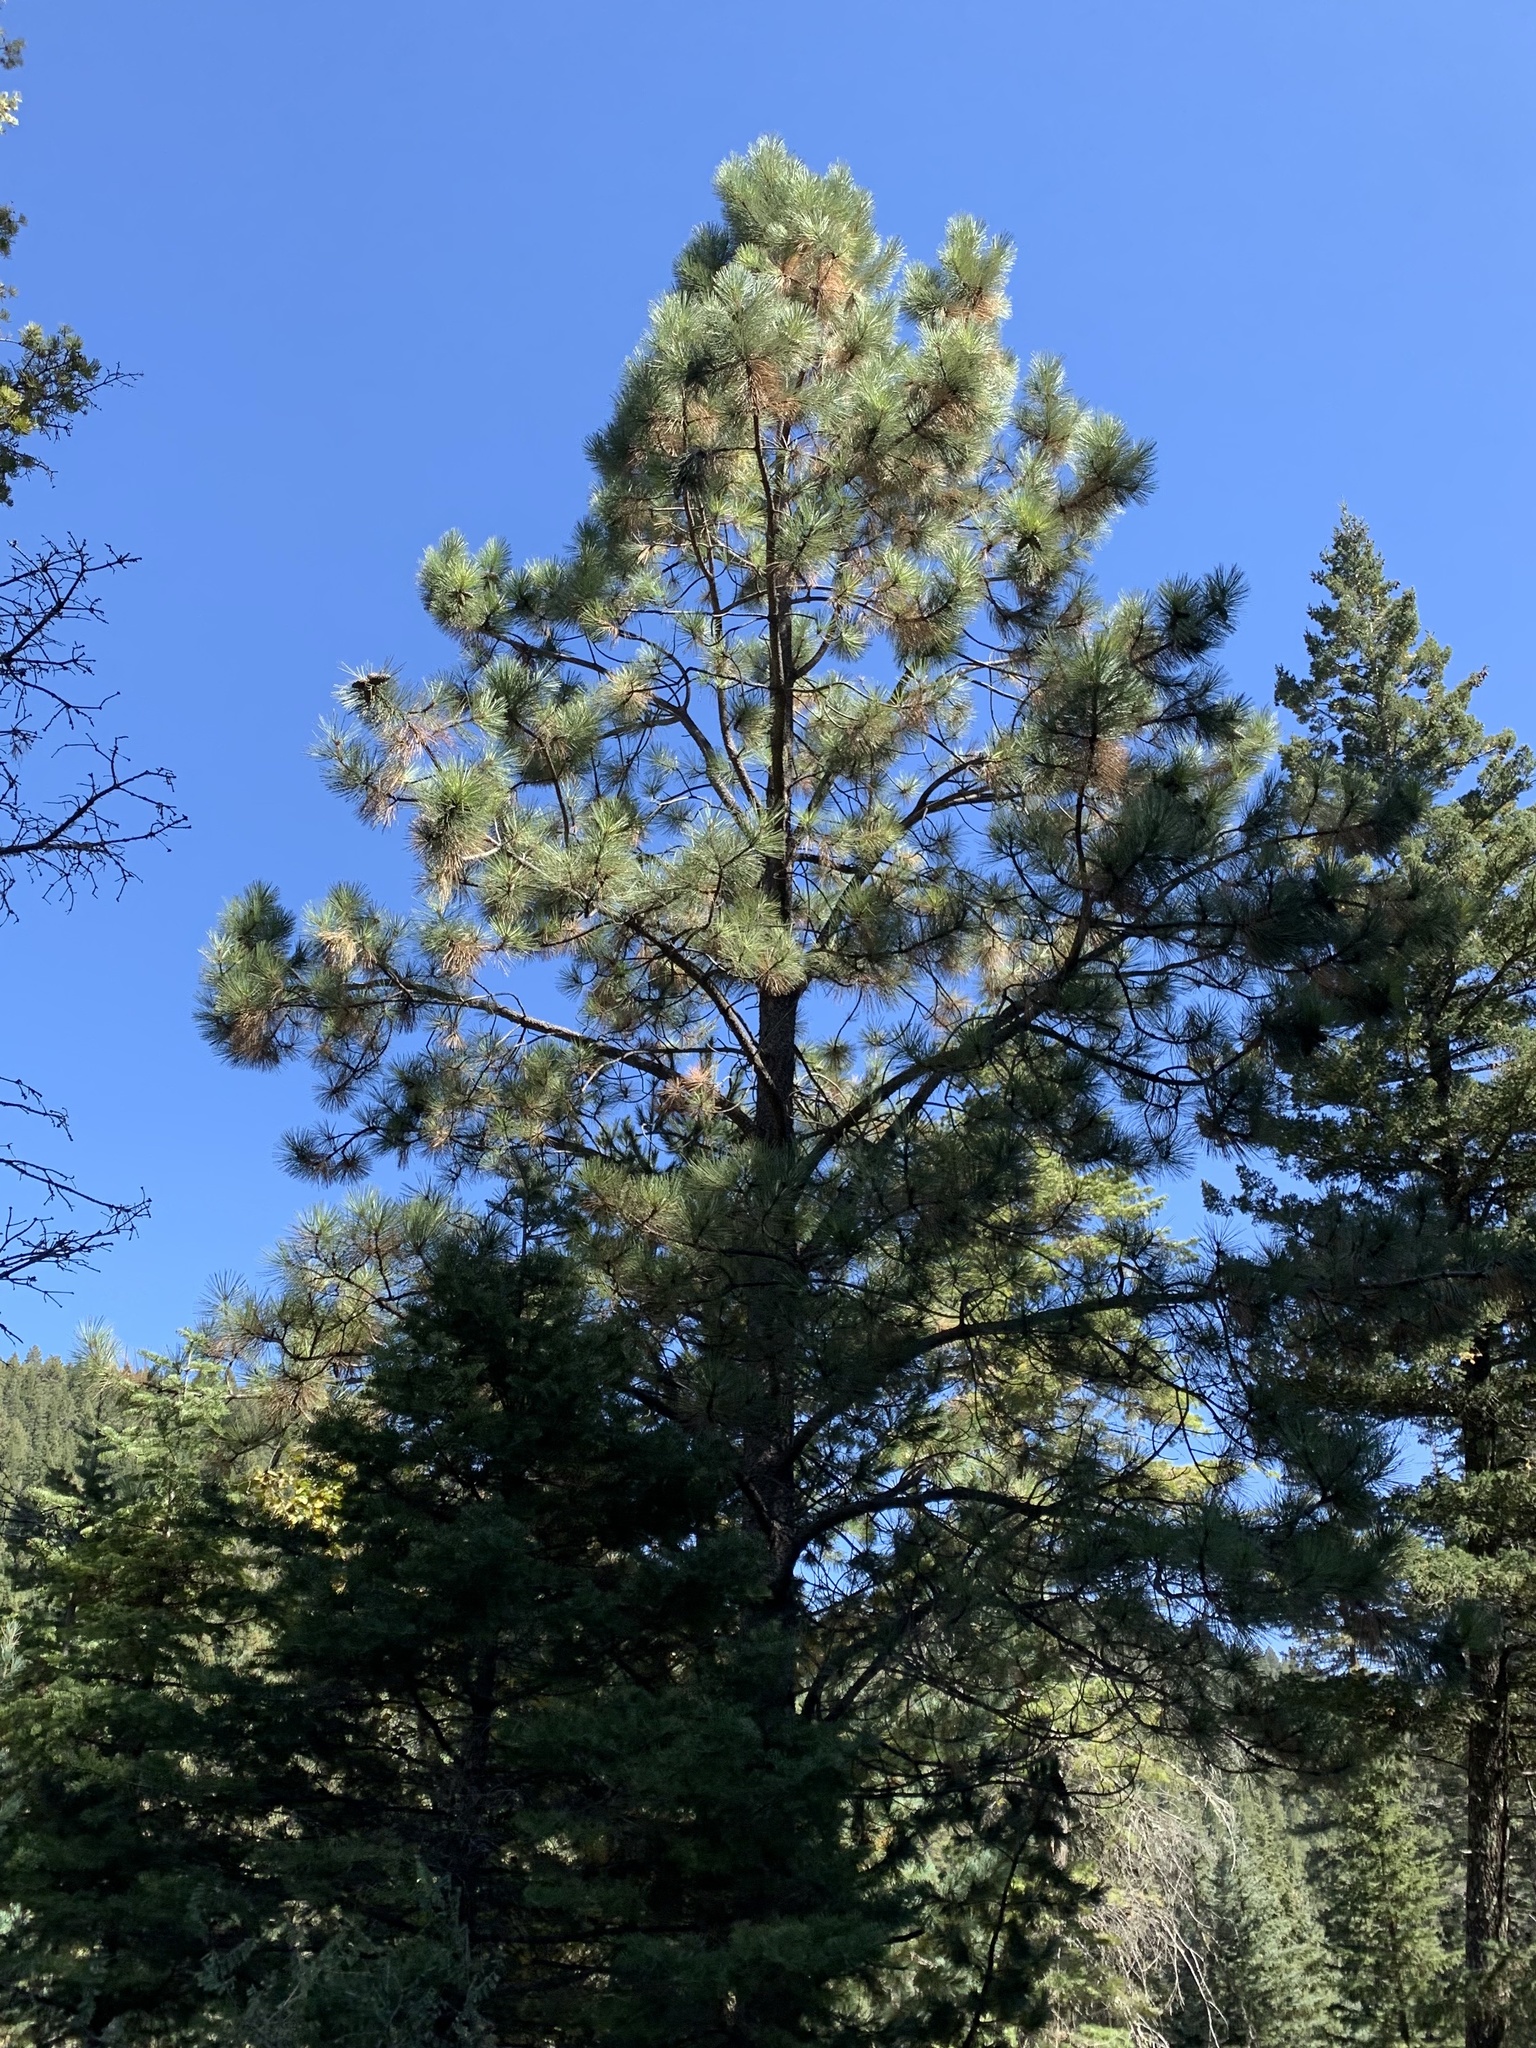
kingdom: Plantae
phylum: Tracheophyta
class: Pinopsida
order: Pinales
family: Pinaceae
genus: Pinus
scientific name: Pinus ponderosa
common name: Western yellow-pine
